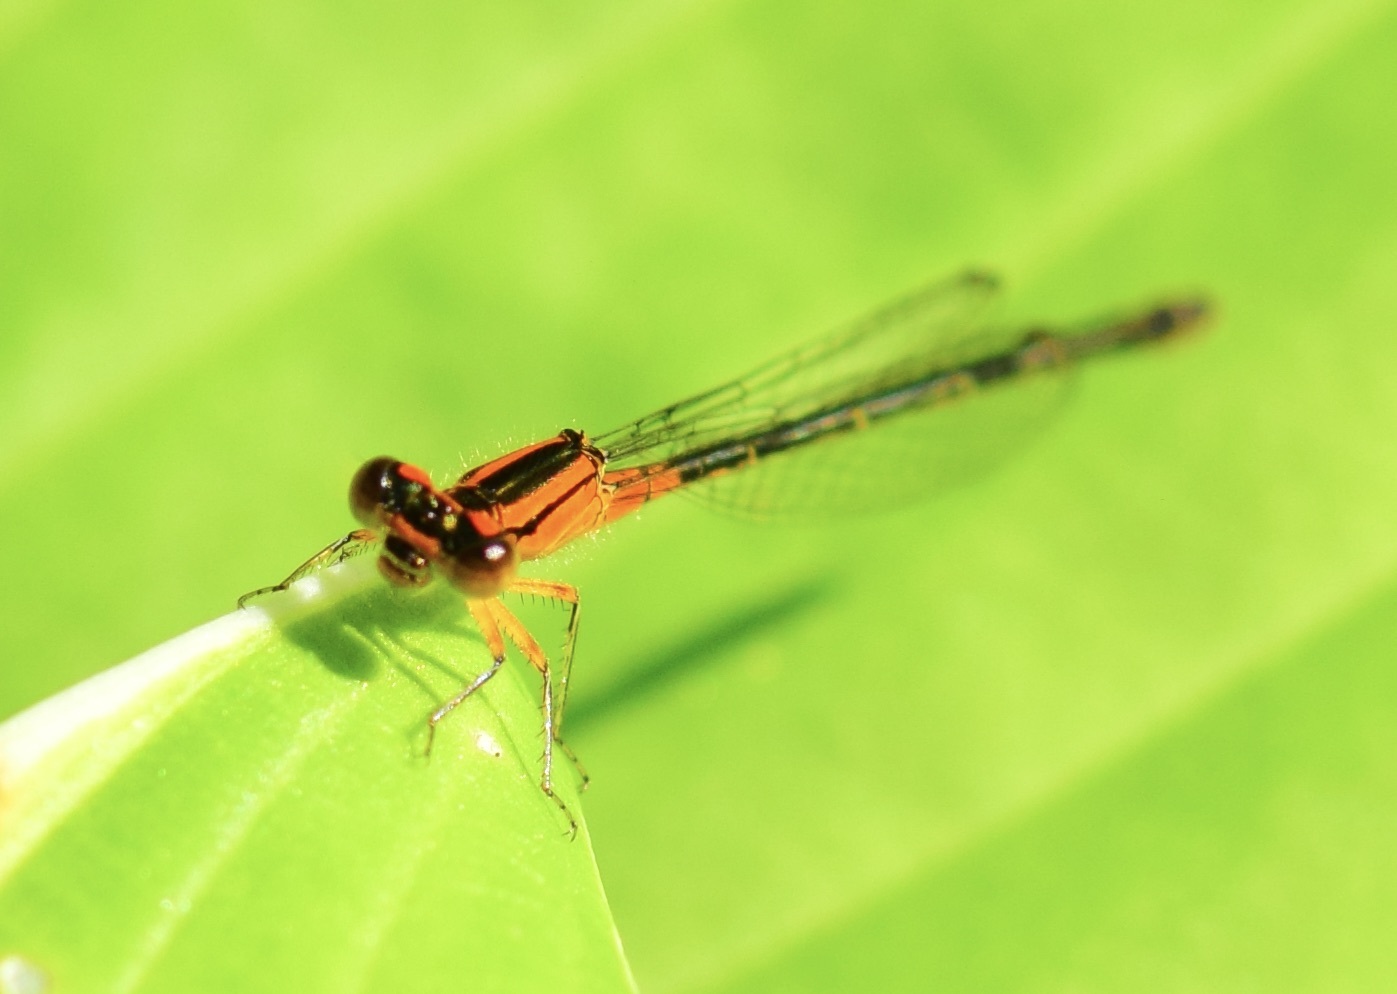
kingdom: Animalia
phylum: Arthropoda
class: Insecta
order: Odonata
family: Coenagrionidae
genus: Ischnura
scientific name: Ischnura verticalis
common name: Eastern forktail
